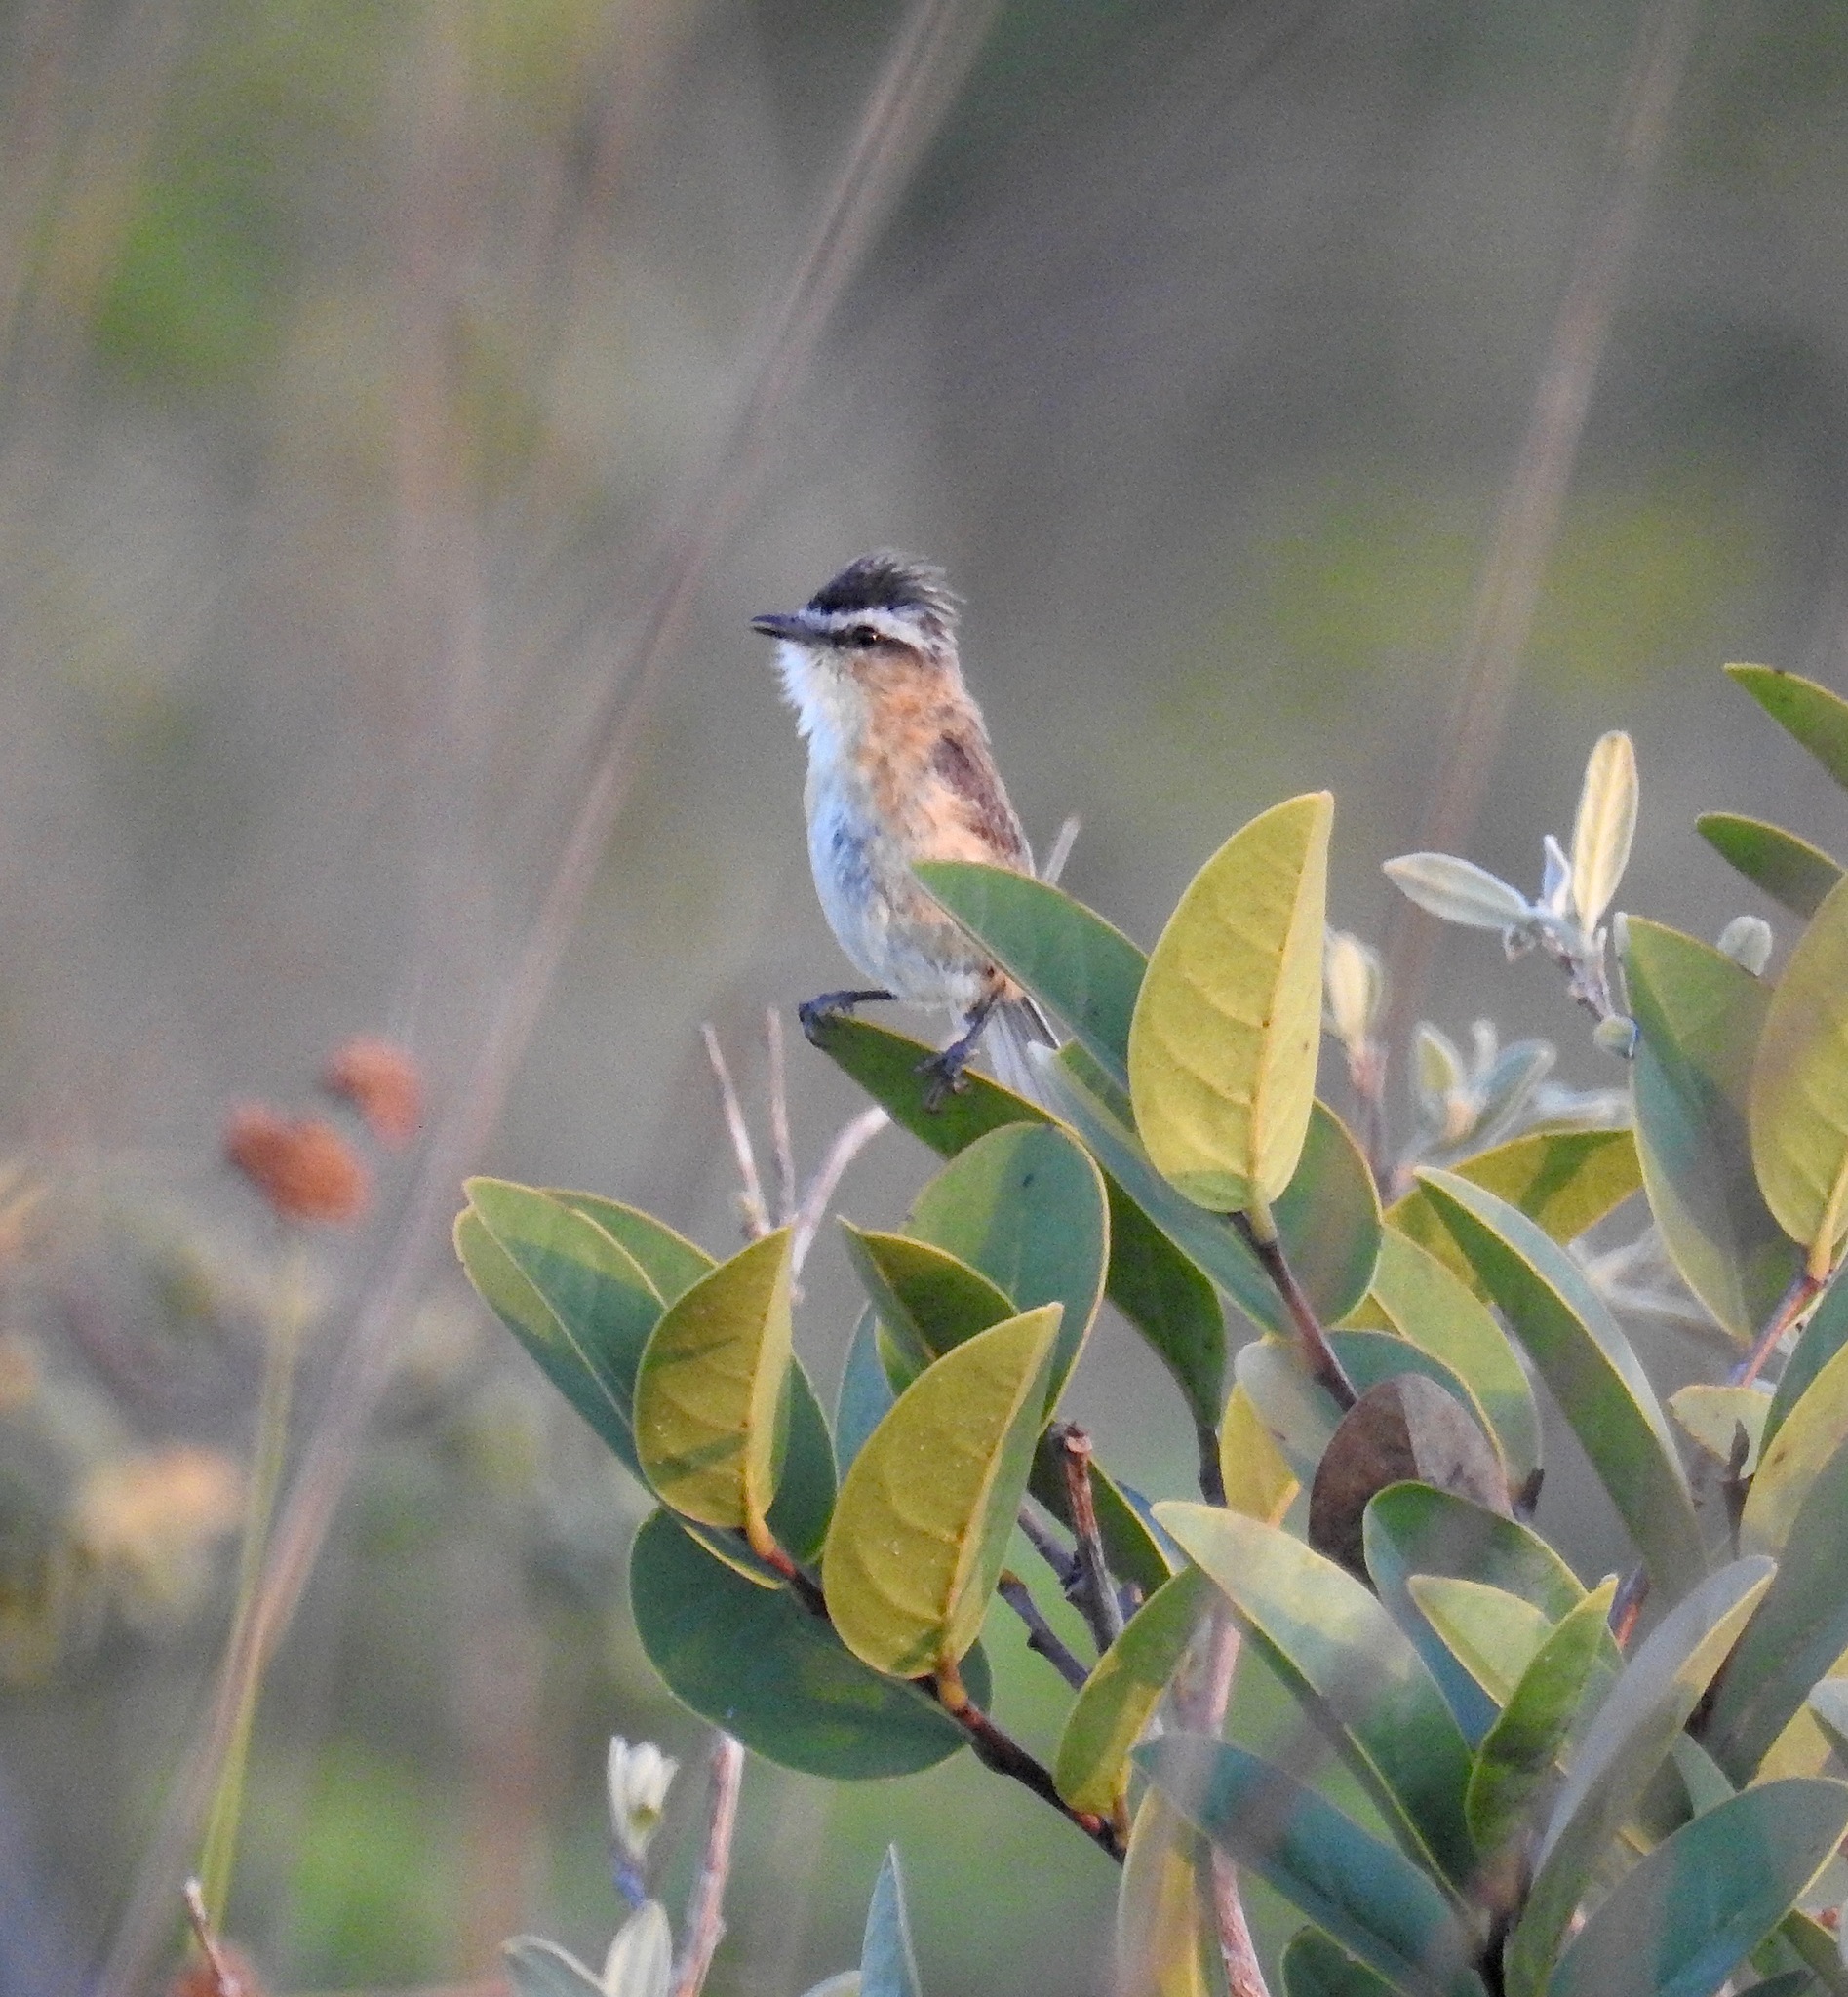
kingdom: Animalia
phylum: Chordata
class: Aves
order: Passeriformes
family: Tyrannidae
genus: Culicivora
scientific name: Culicivora caudacuta
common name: Sharp-tailed grass tyrant
